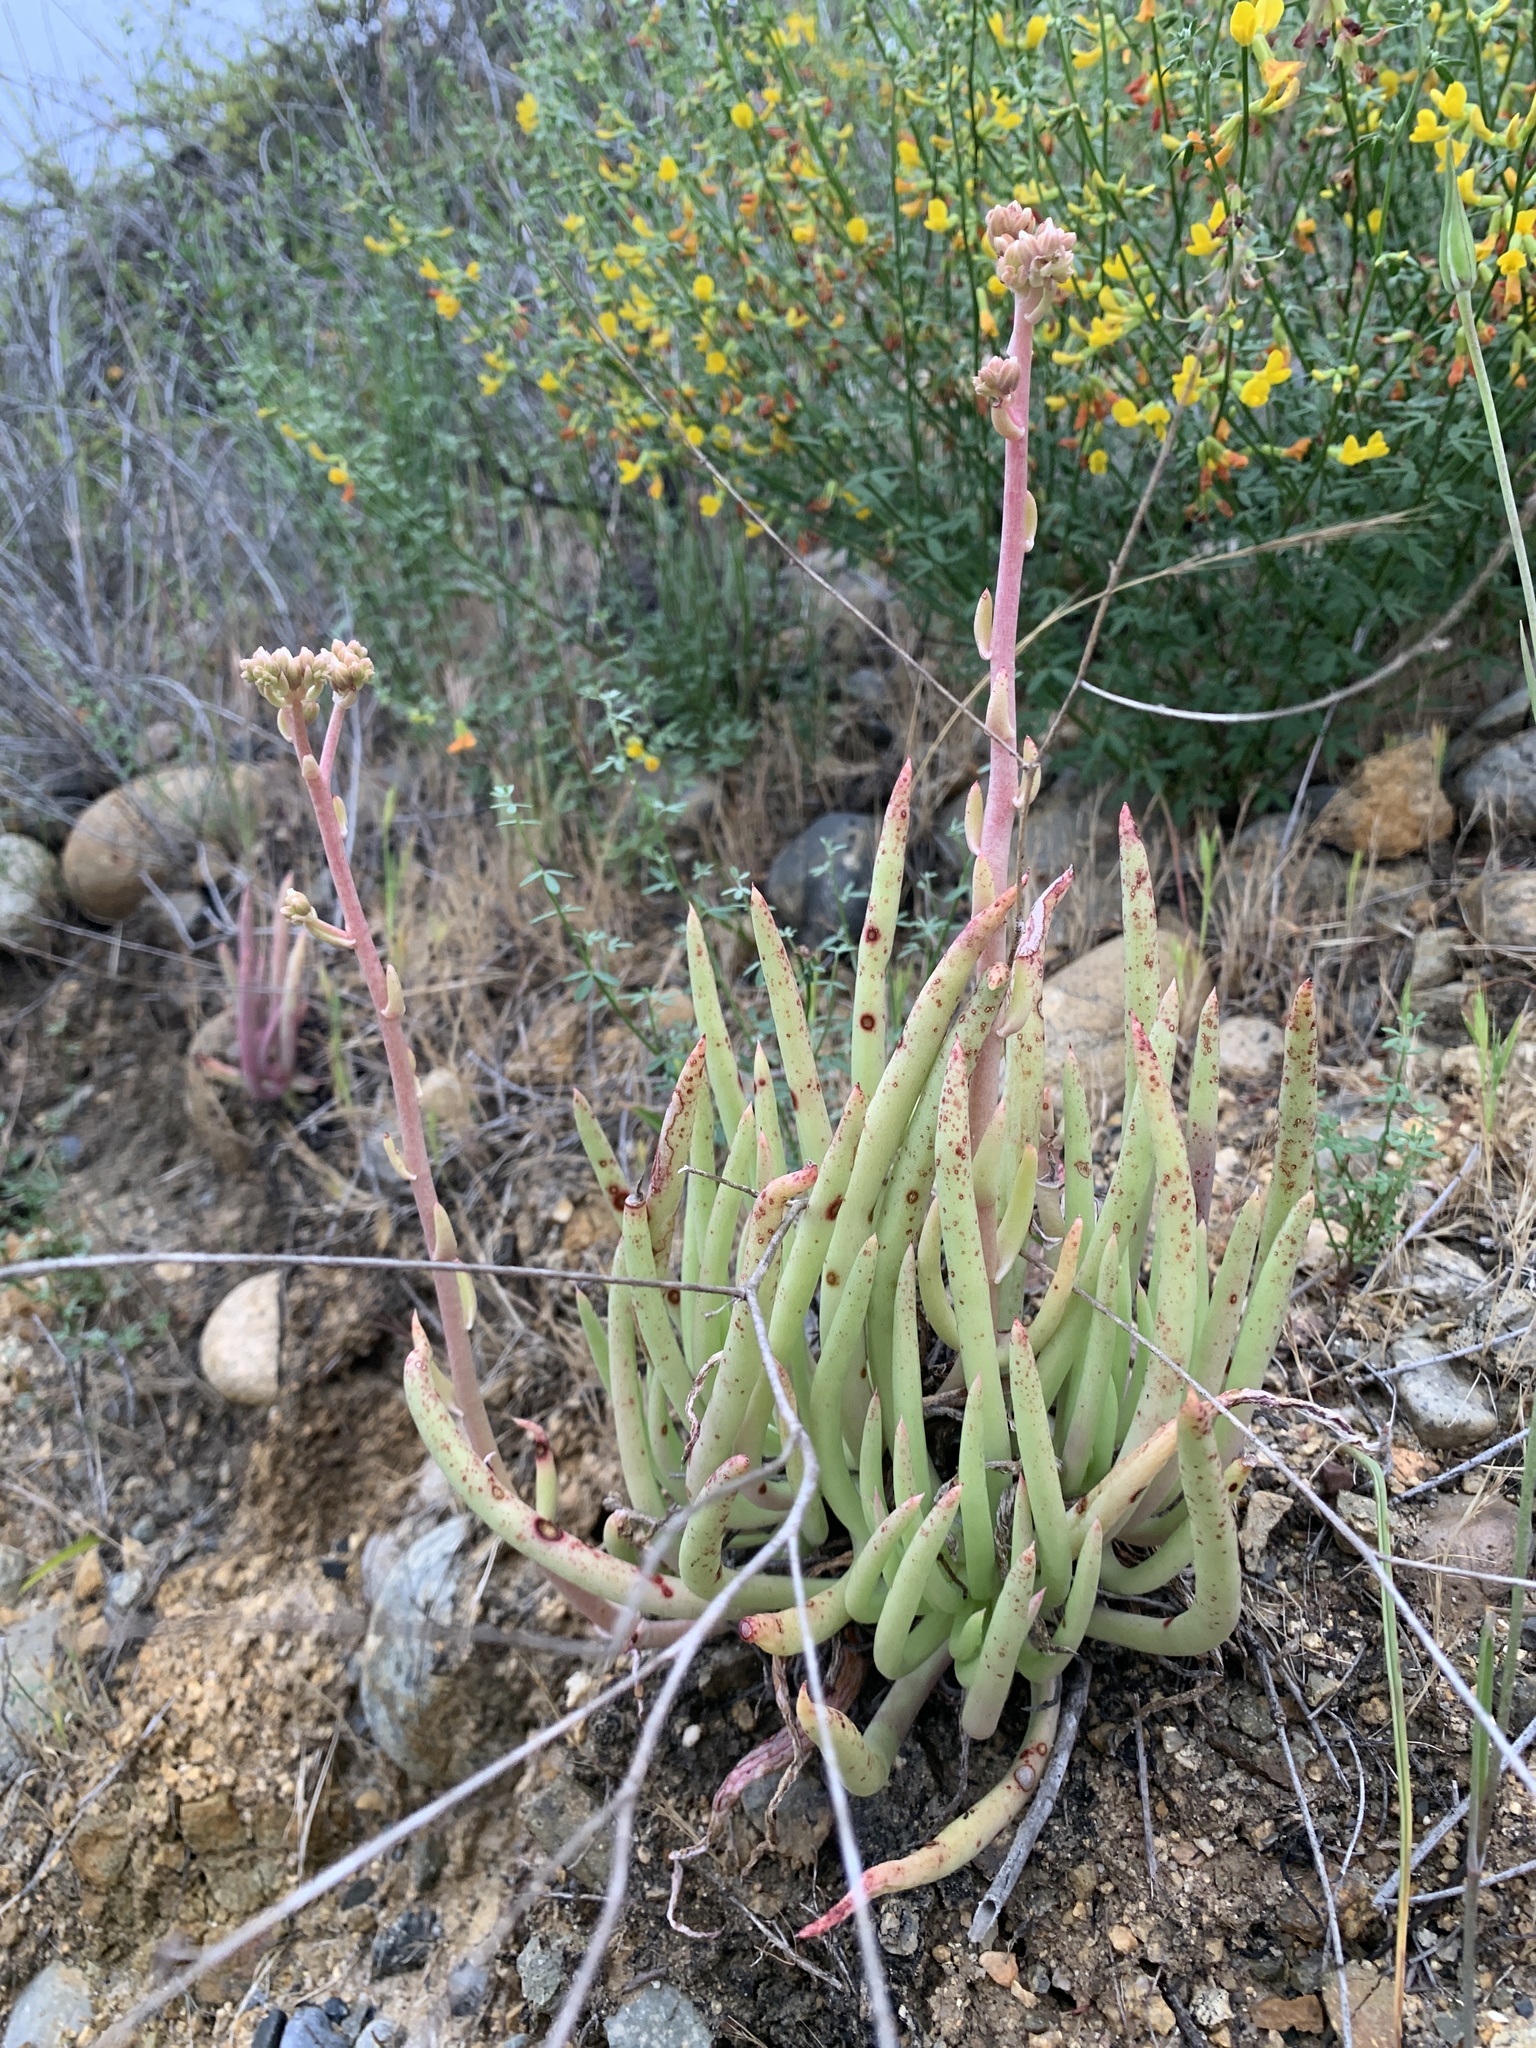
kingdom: Plantae
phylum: Tracheophyta
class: Magnoliopsida
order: Saxifragales
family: Crassulaceae
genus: Dudleya
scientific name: Dudleya edulis
